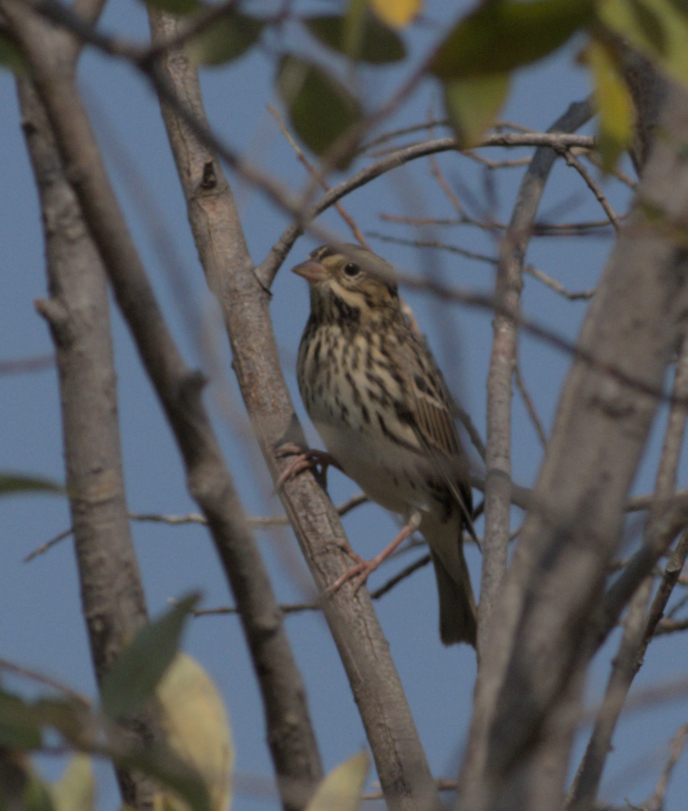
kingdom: Animalia
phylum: Chordata
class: Aves
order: Passeriformes
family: Passerellidae
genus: Passerculus
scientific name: Passerculus sandwichensis
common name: Savannah sparrow
